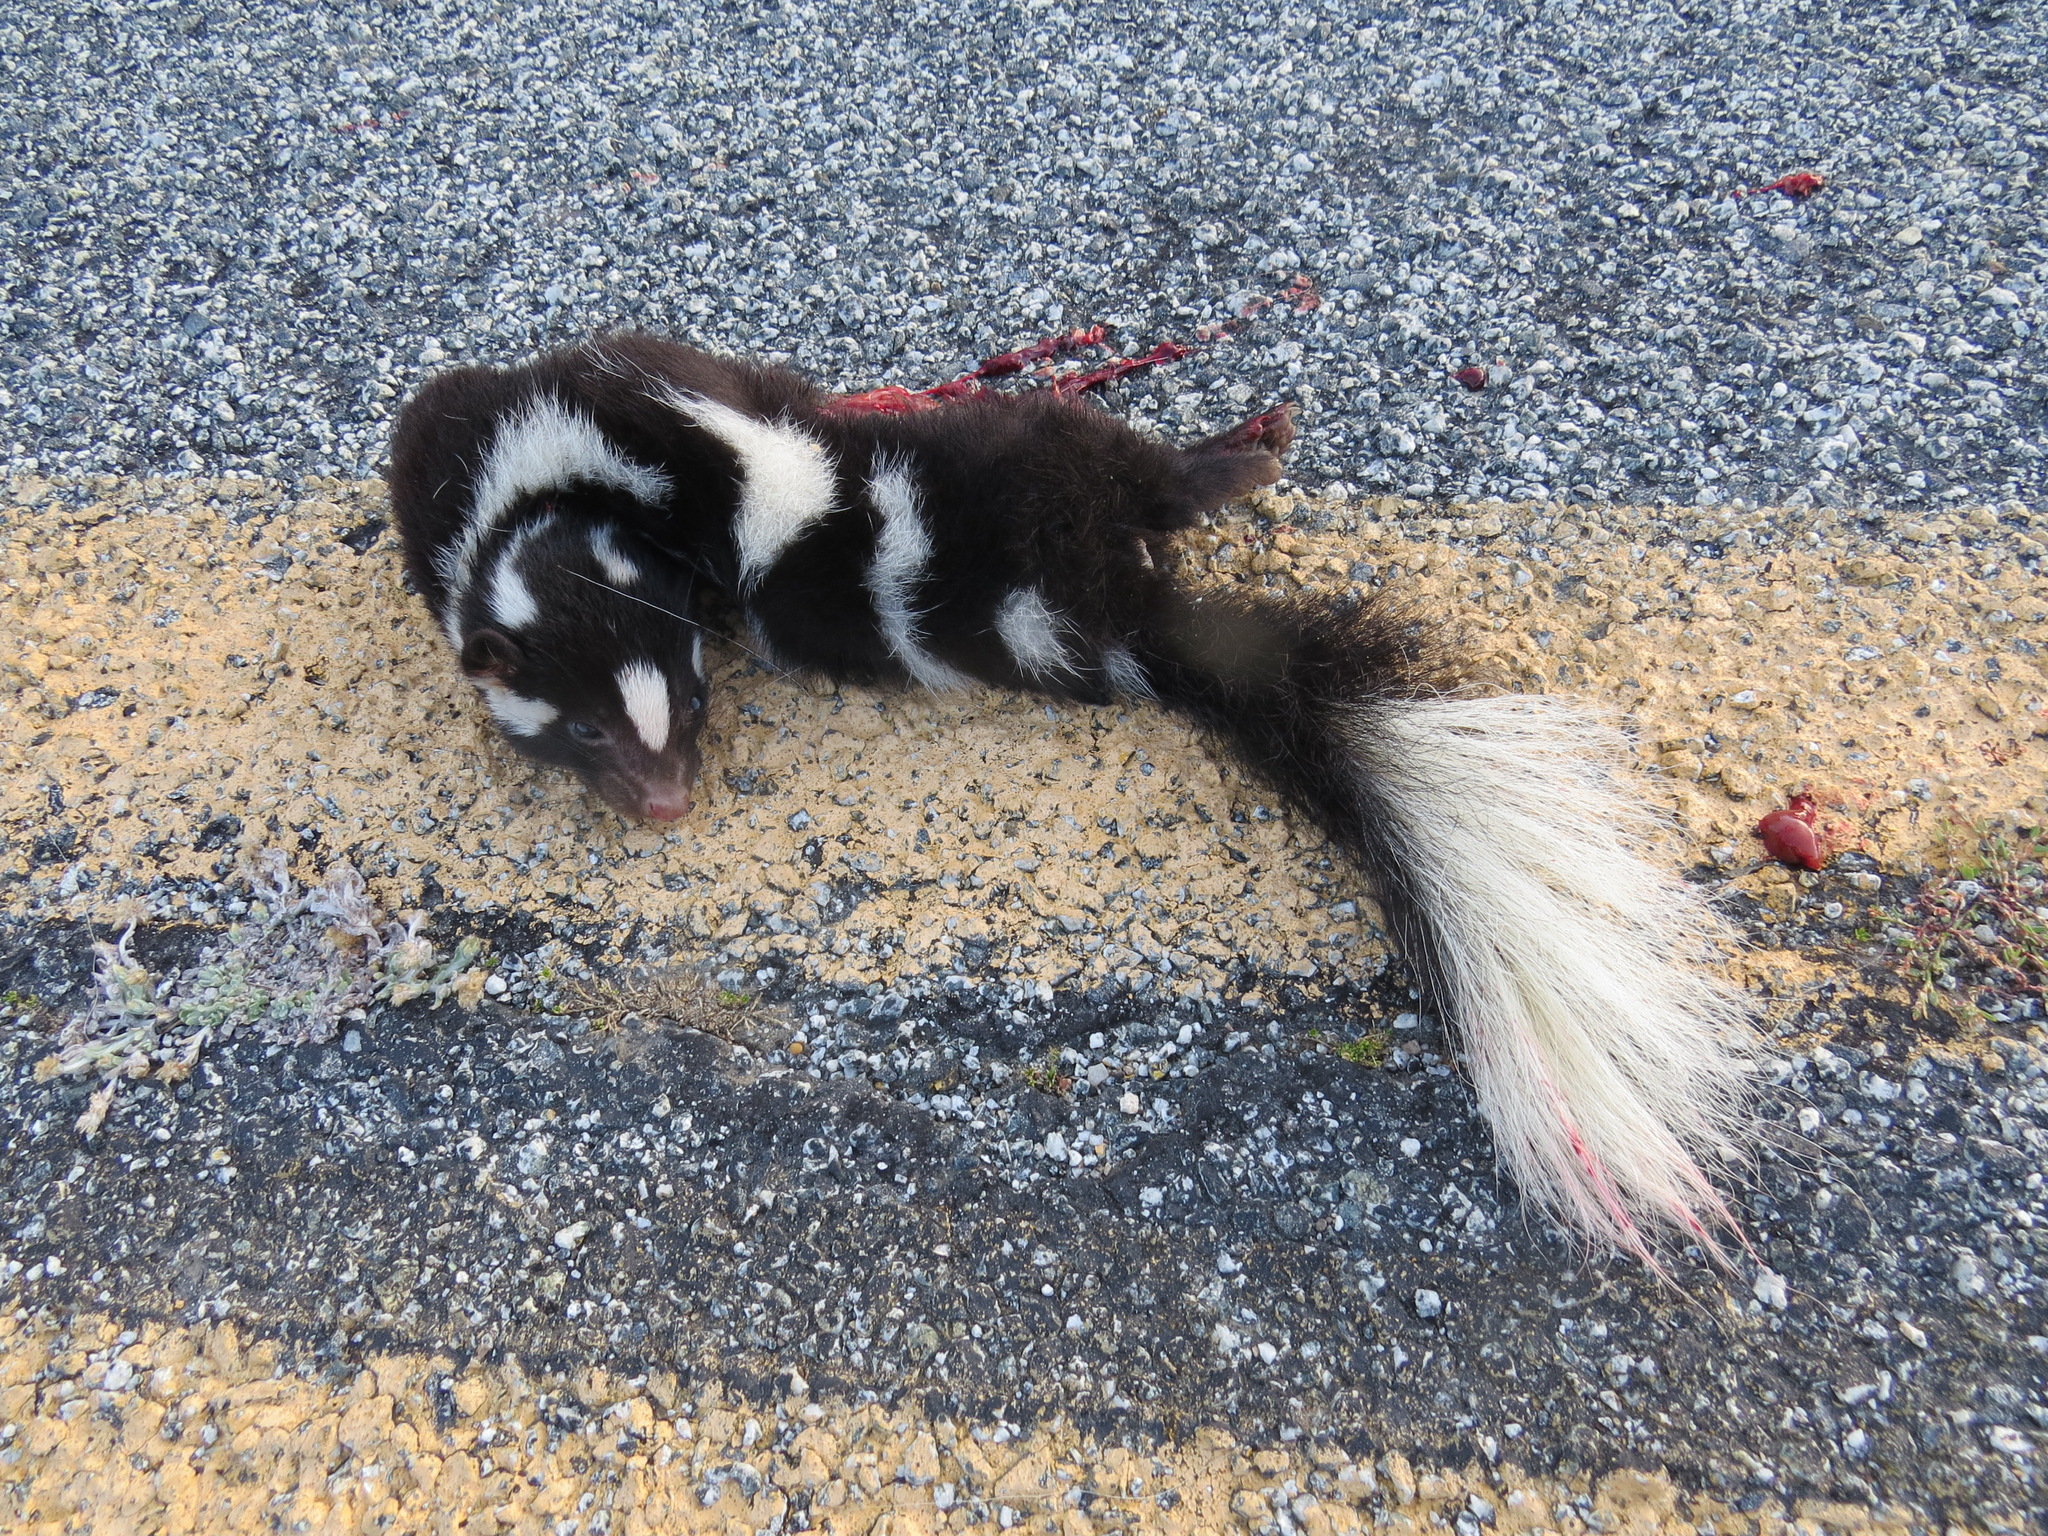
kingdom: Animalia
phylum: Chordata
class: Mammalia
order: Carnivora
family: Mephitidae
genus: Spilogale
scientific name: Spilogale gracilis
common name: Western spotted skunk
